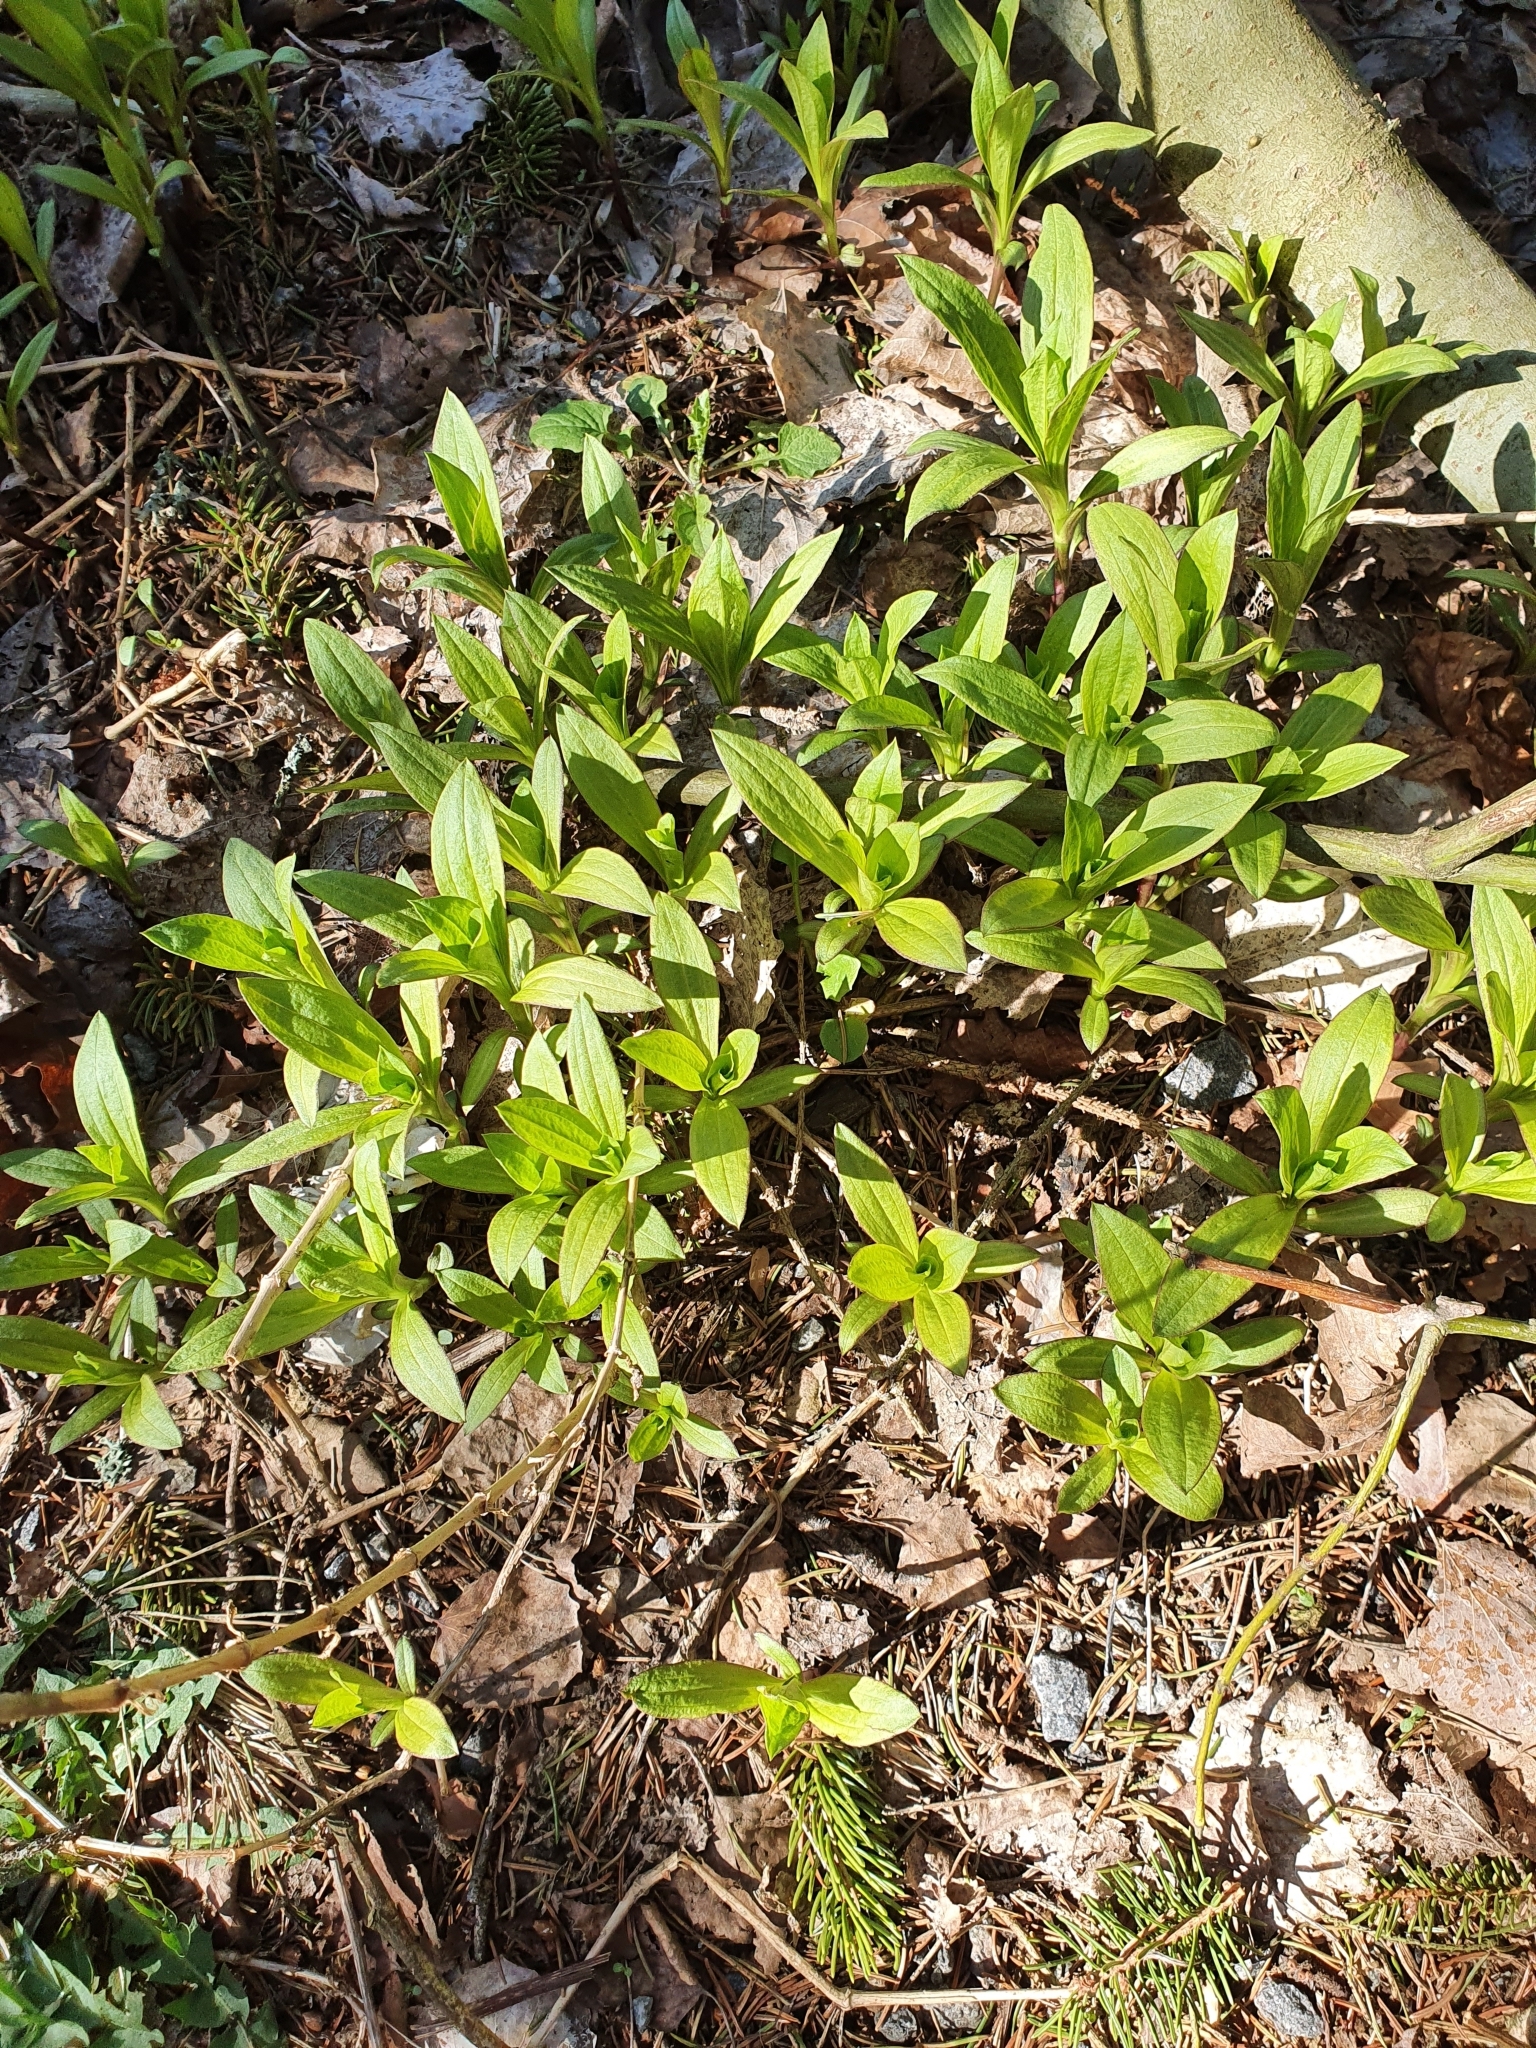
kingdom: Plantae
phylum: Tracheophyta
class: Magnoliopsida
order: Caryophyllales
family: Caryophyllaceae
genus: Saponaria
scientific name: Saponaria officinalis
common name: Soapwort
